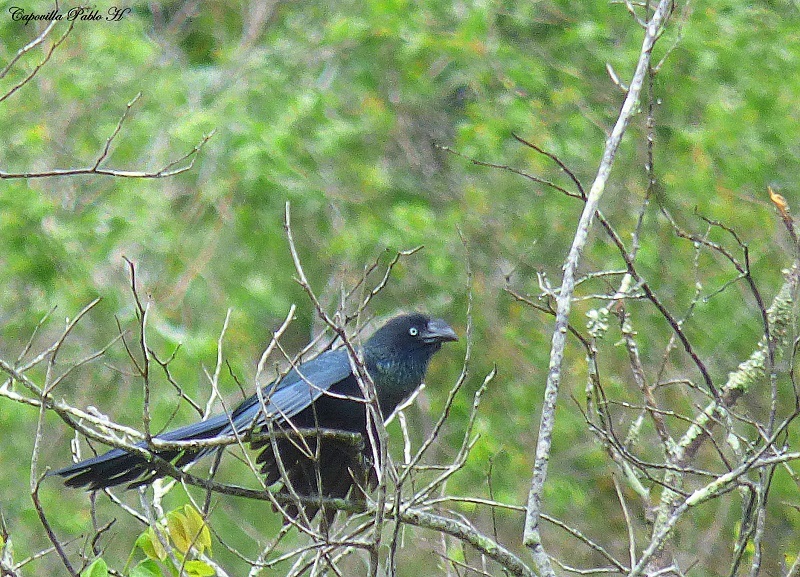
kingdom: Animalia
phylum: Chordata
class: Aves
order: Cuculiformes
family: Cuculidae
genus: Crotophaga
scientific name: Crotophaga major
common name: Greater ani
